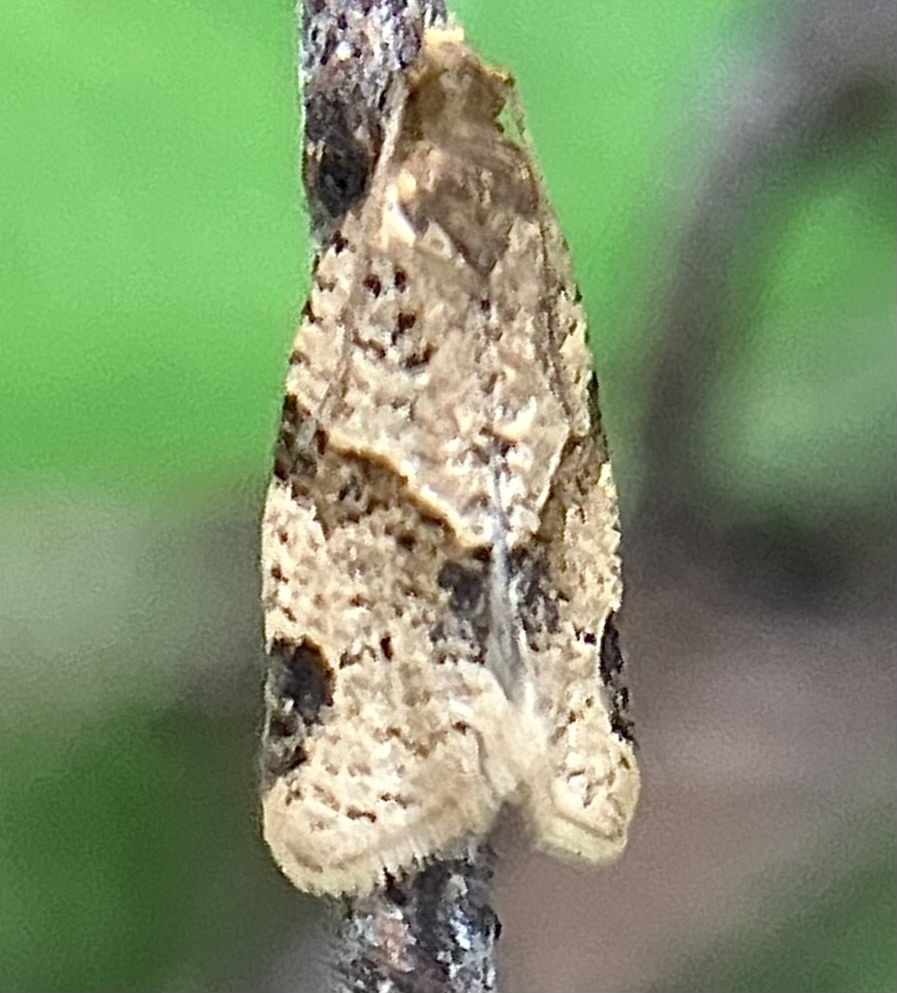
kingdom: Animalia
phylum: Arthropoda
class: Insecta
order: Lepidoptera
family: Tortricidae
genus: Clepsis
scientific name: Clepsis peritana
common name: Garden tortrix
